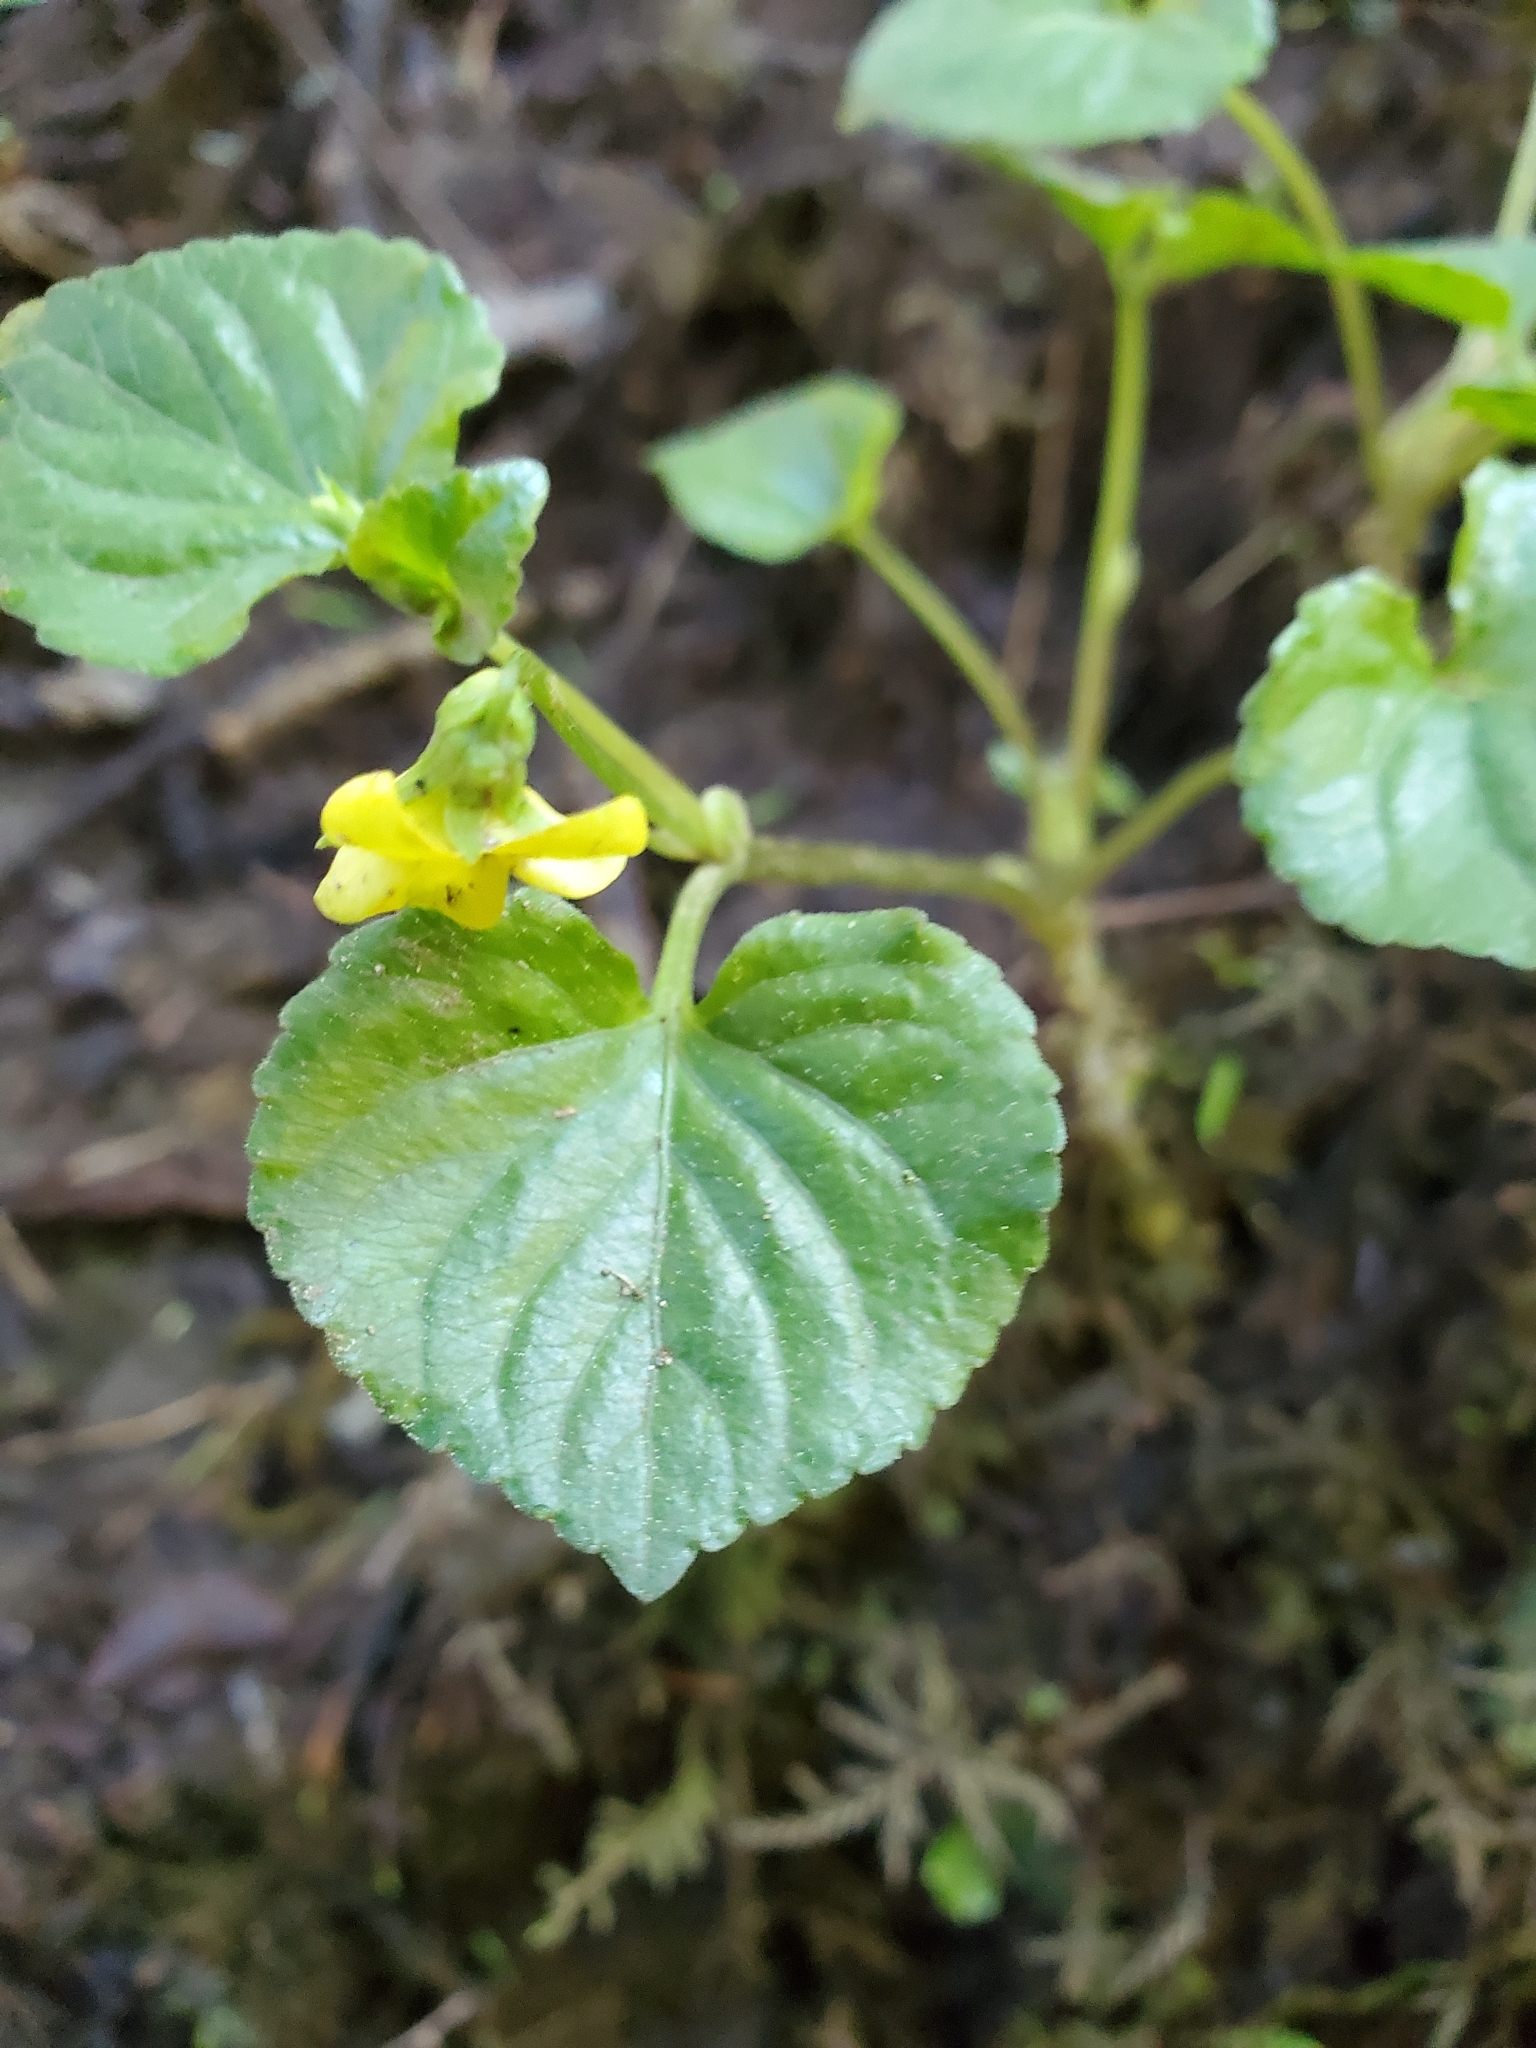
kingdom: Plantae
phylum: Tracheophyta
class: Magnoliopsida
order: Malpighiales
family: Violaceae
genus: Viola
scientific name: Viola glabella
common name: Stream violet
